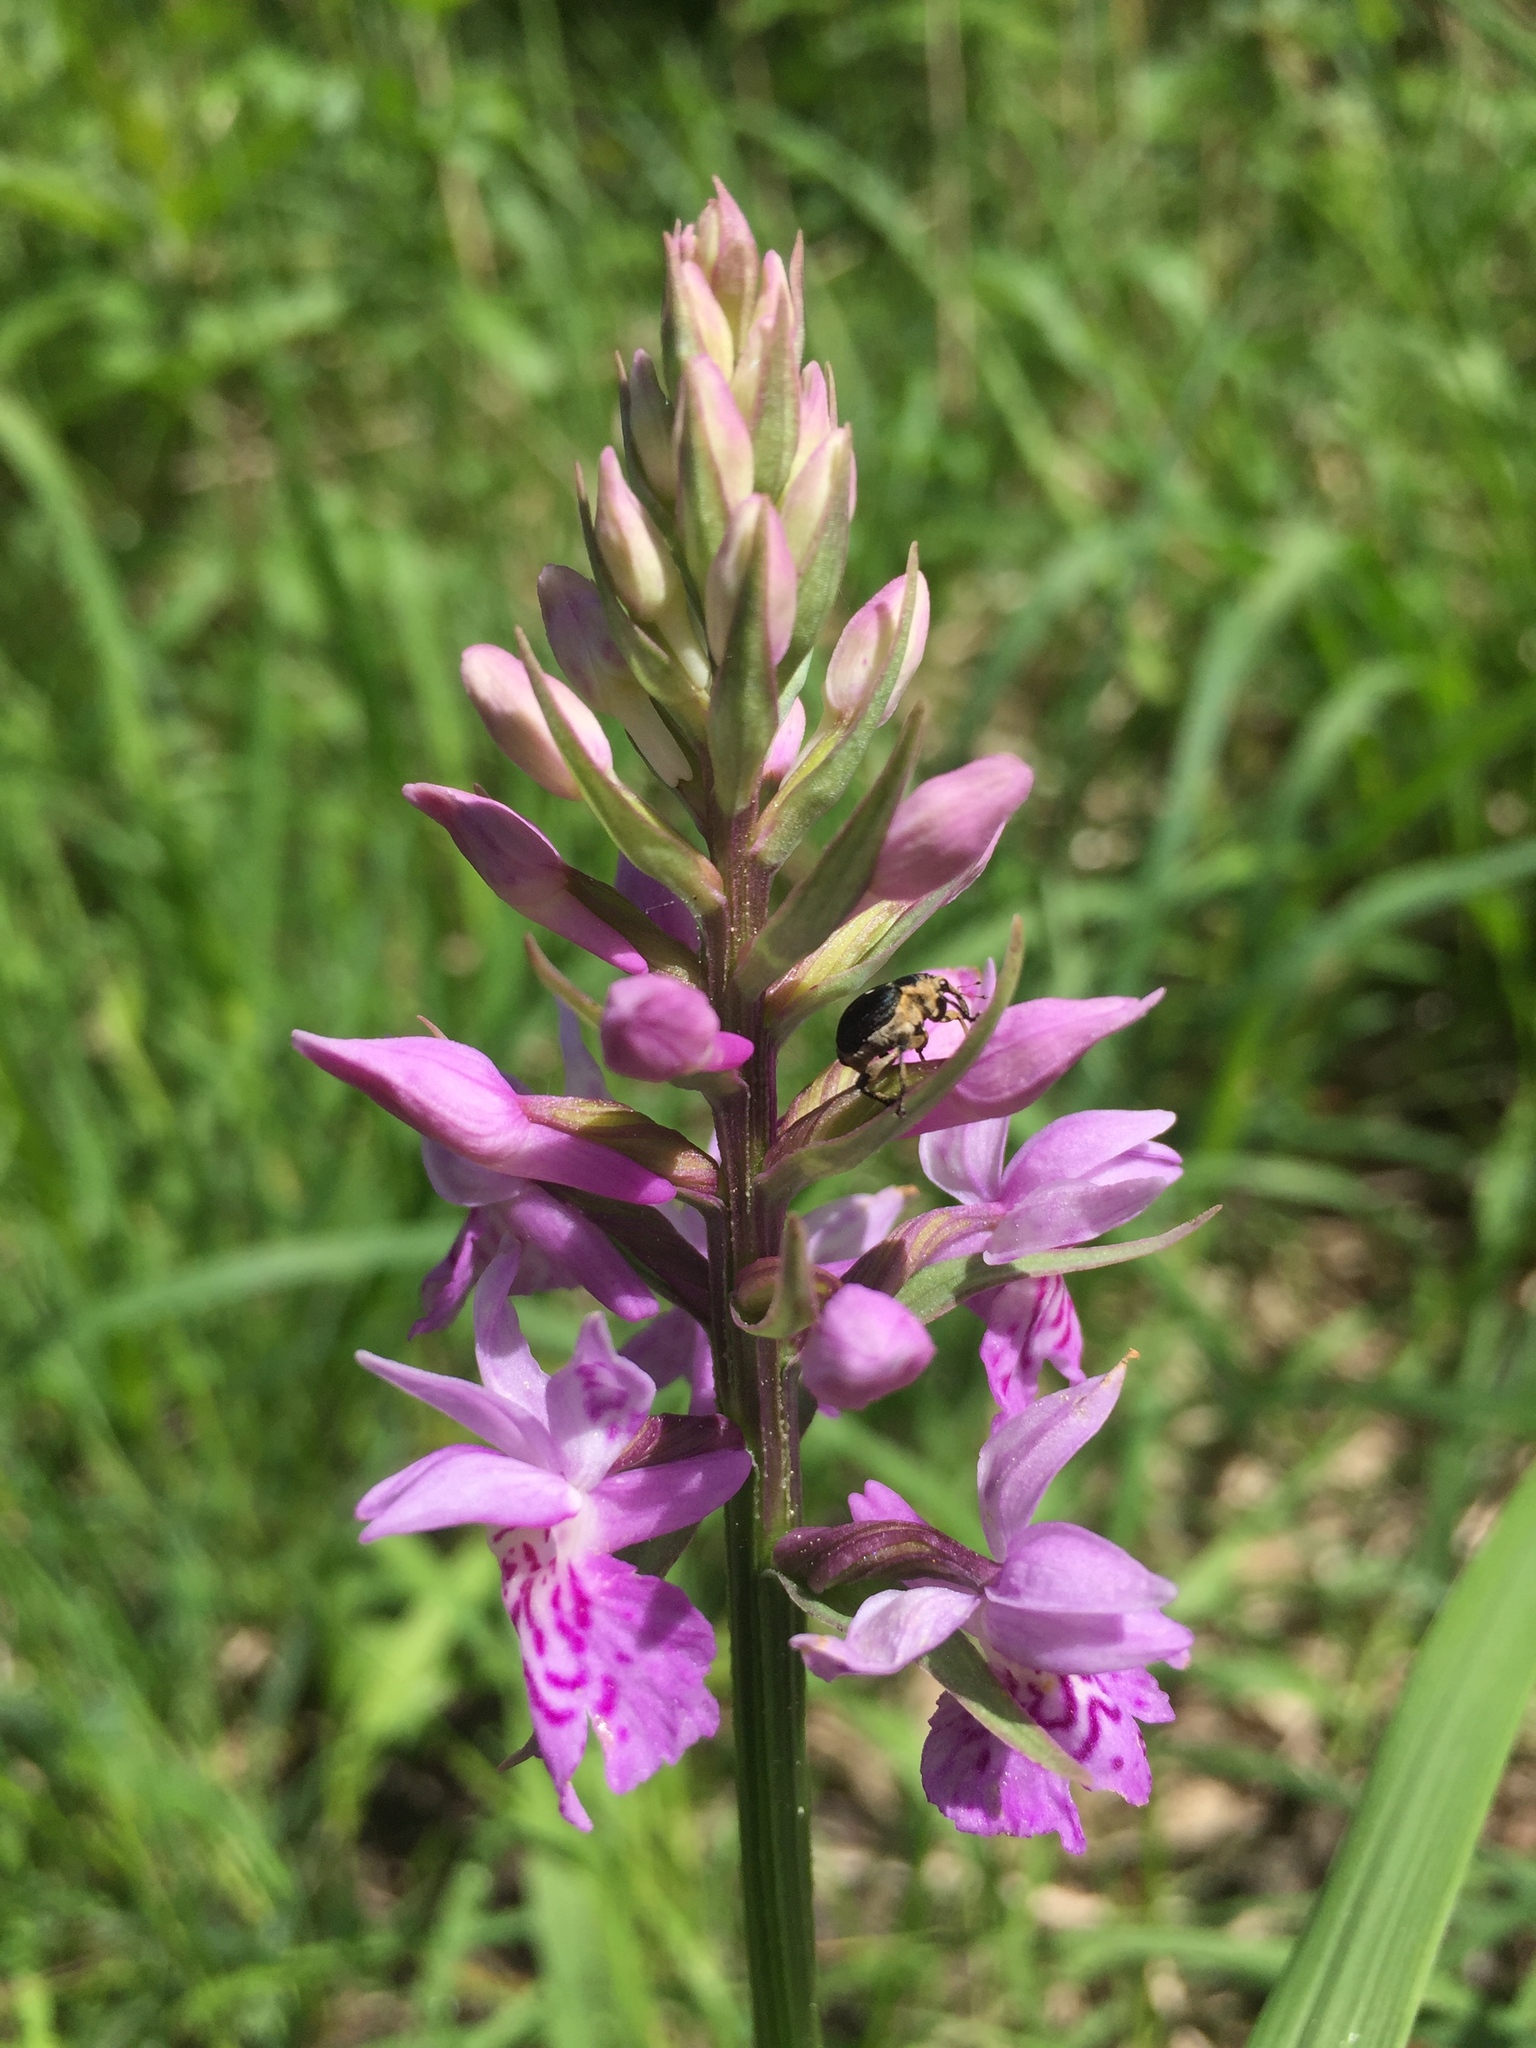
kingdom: Plantae
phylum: Tracheophyta
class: Liliopsida
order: Asparagales
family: Orchidaceae
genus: Dactylorhiza
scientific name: Dactylorhiza maculata
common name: Heath spotted-orchid
